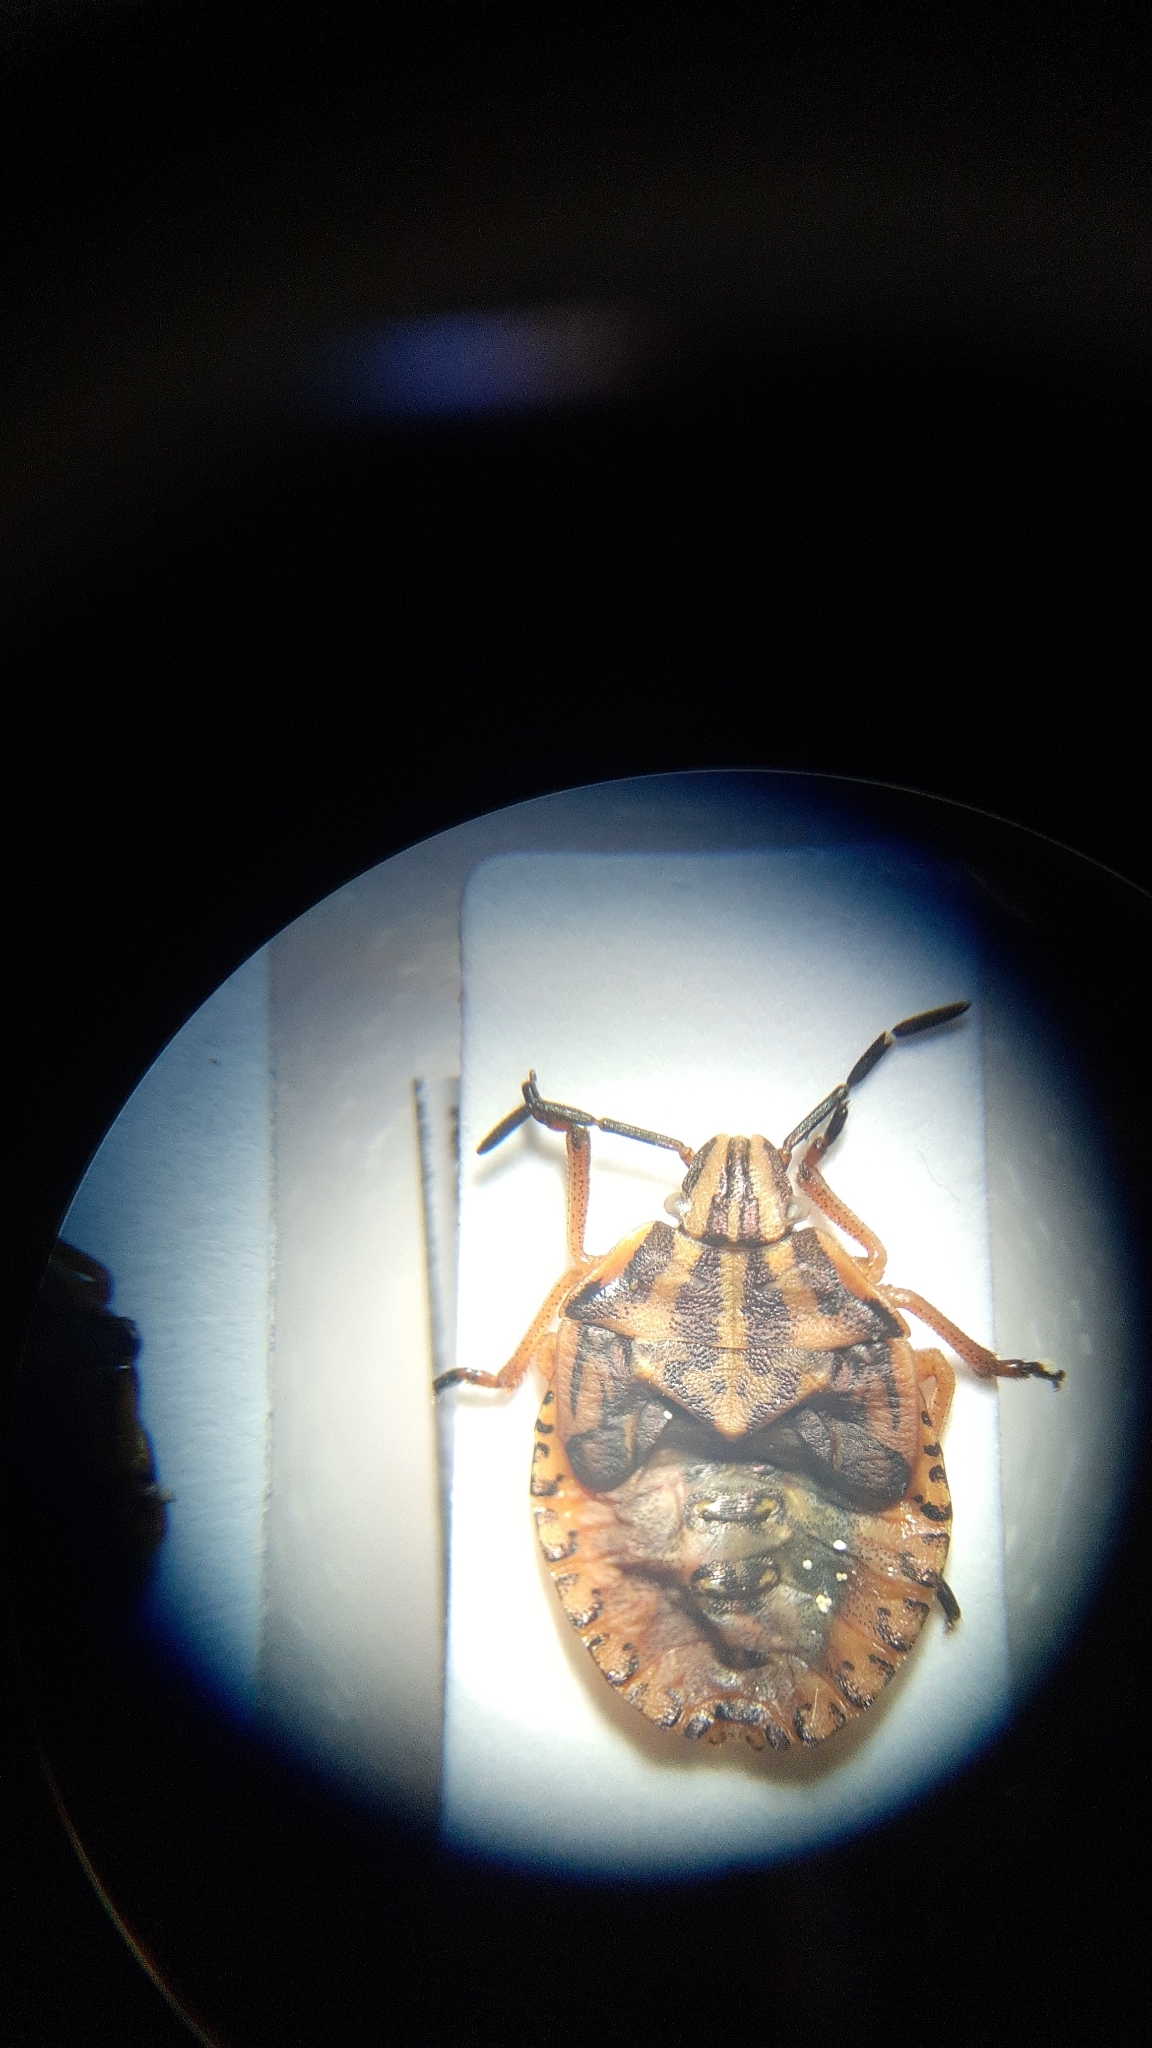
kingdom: Animalia
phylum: Arthropoda
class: Insecta
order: Hemiptera
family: Pentatomidae
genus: Carpocoris
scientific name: Carpocoris purpureipennis
